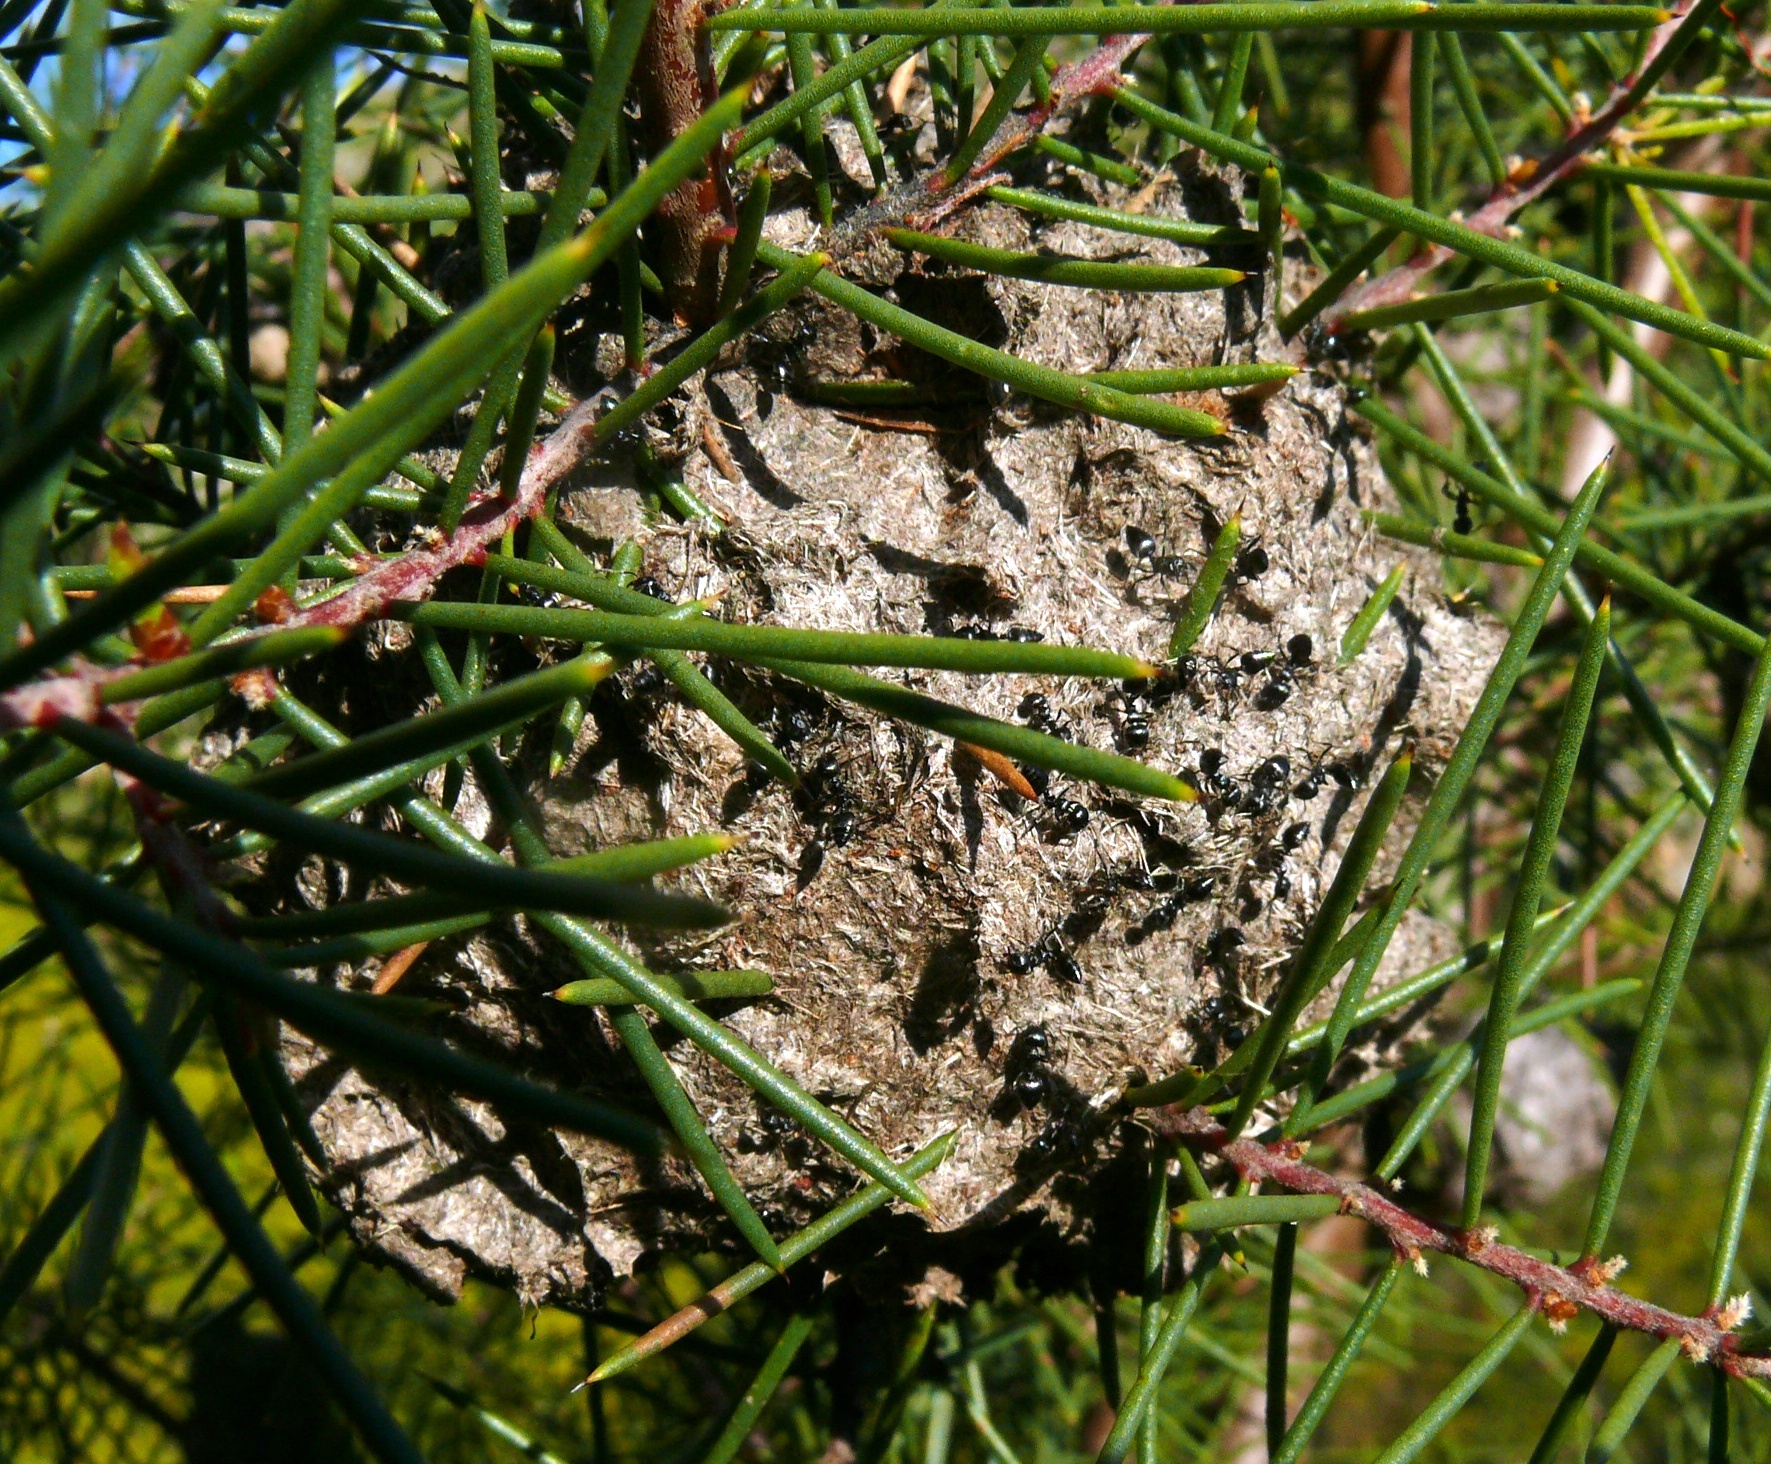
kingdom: Animalia
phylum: Arthropoda
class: Insecta
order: Hymenoptera
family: Formicidae
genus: Crematogaster
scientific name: Crematogaster peringueyi
